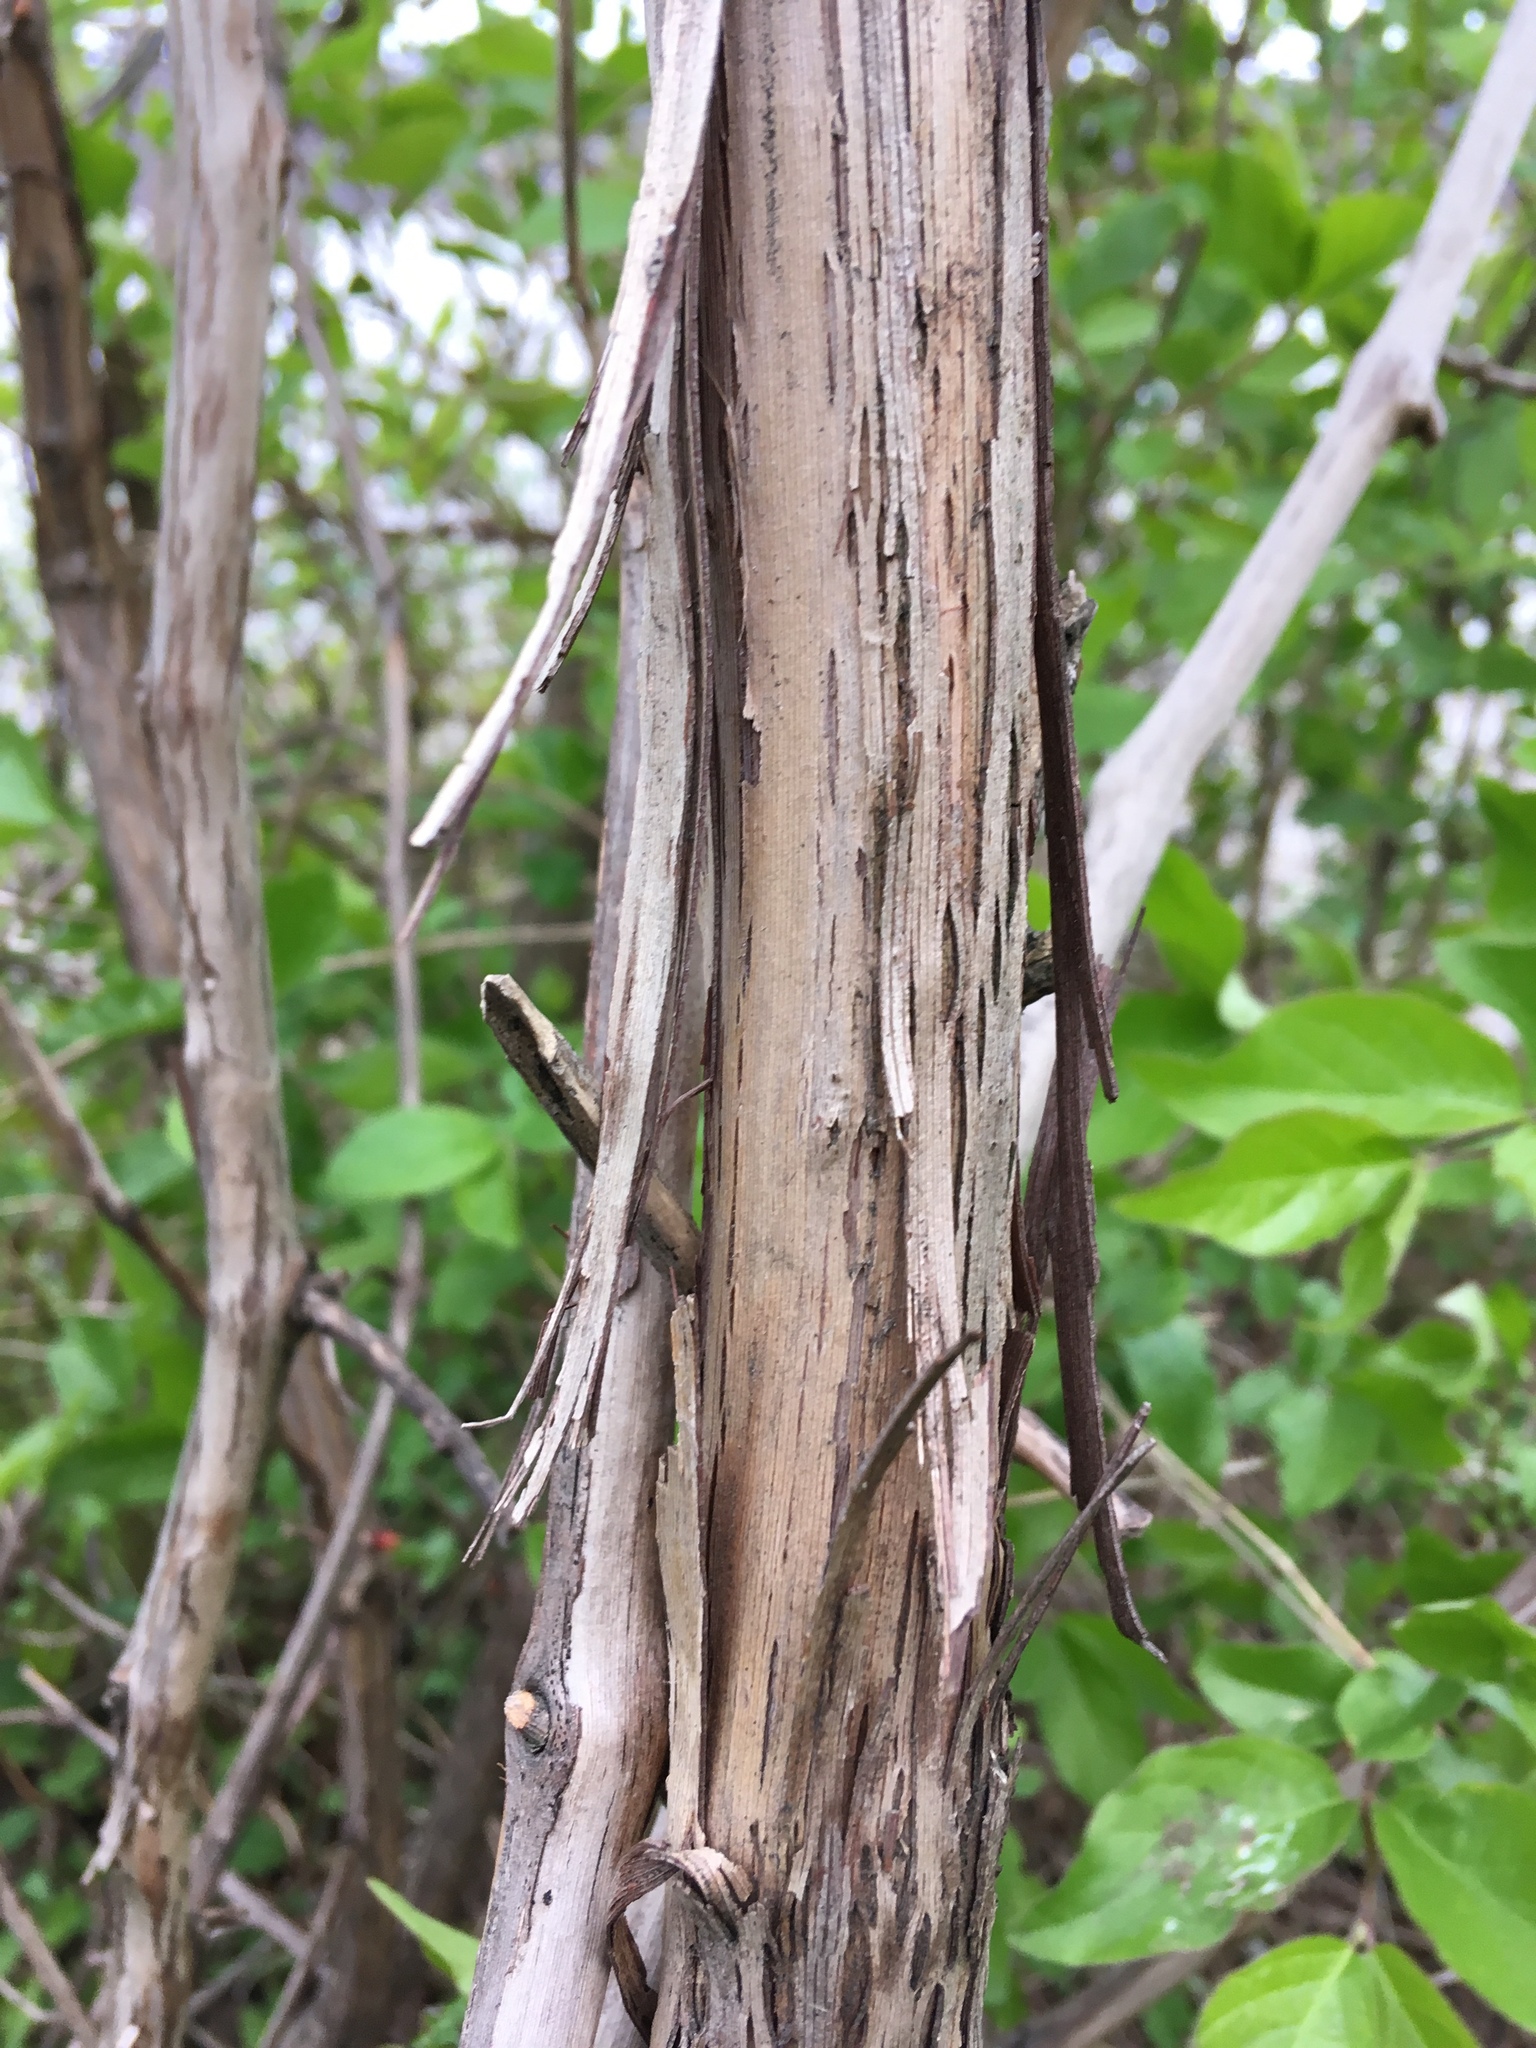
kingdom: Plantae
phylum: Tracheophyta
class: Magnoliopsida
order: Vitales
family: Vitaceae
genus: Vitis
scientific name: Vitis
